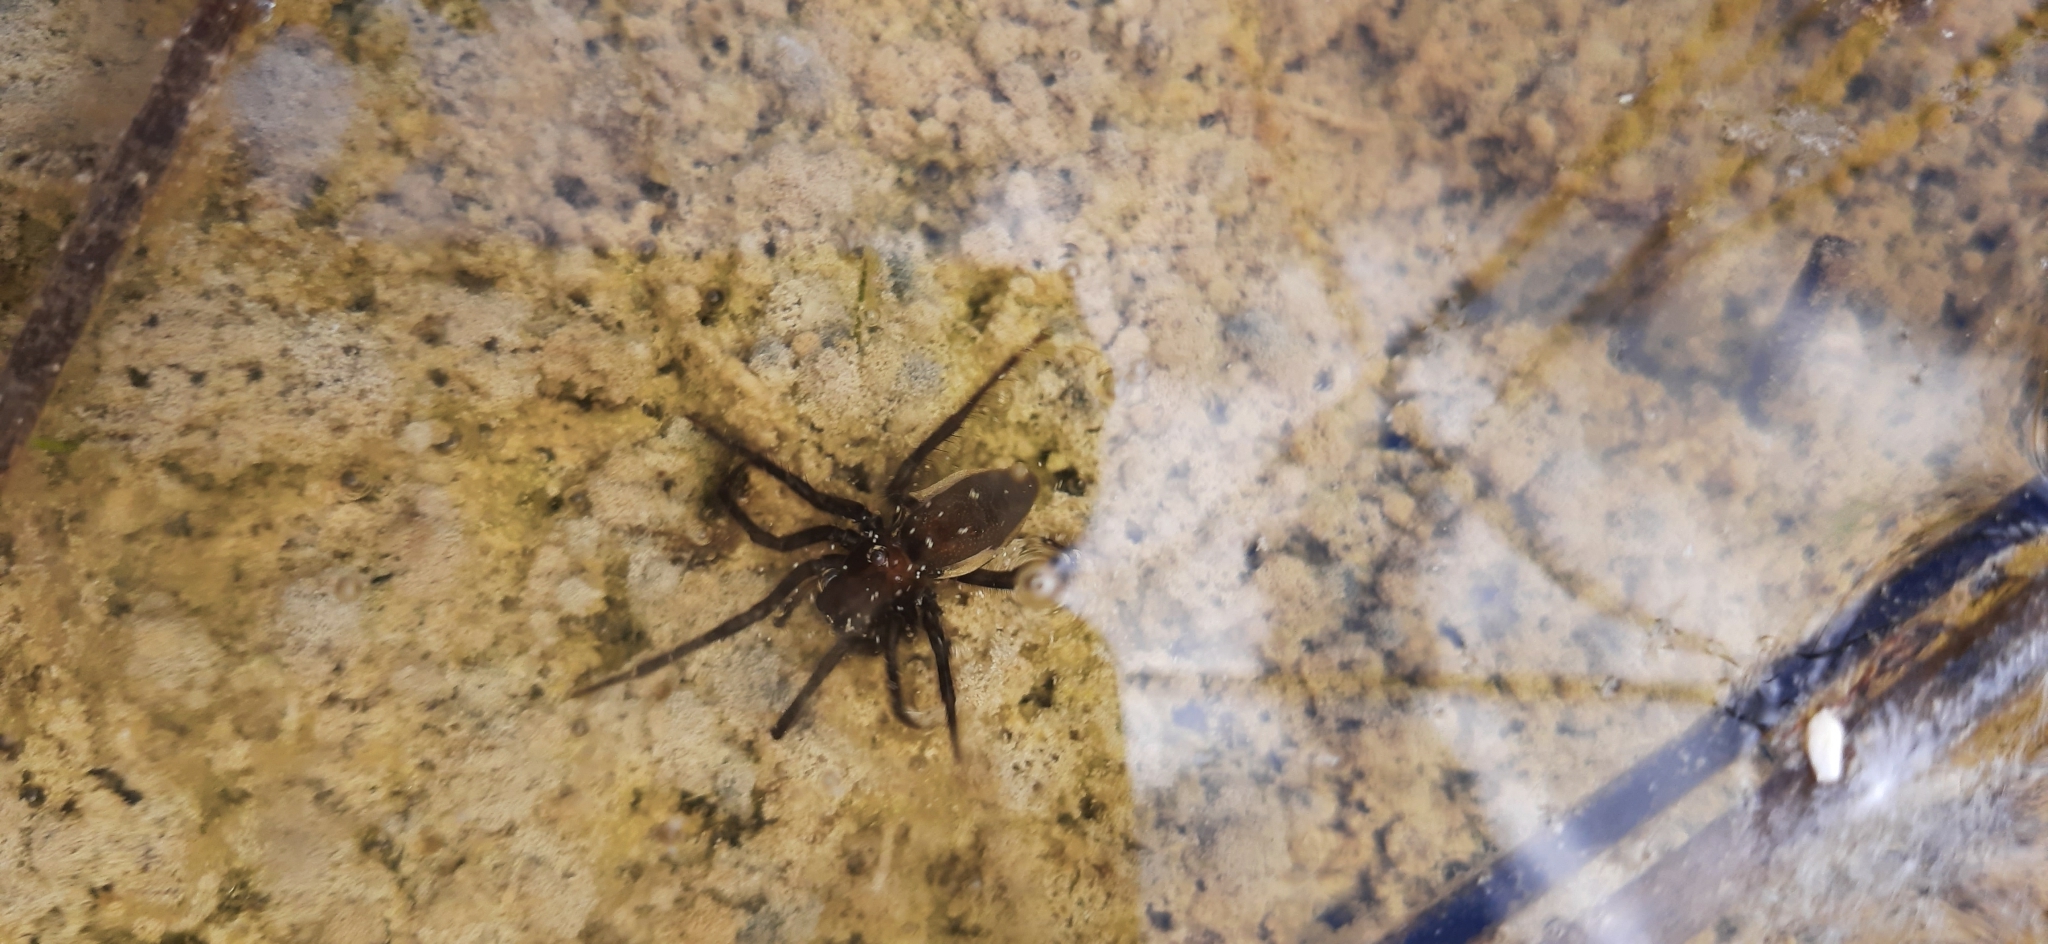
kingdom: Animalia
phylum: Arthropoda
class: Arachnida
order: Araneae
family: Dictynidae
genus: Argyroneta
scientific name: Argyroneta aquatica
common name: Water spider
